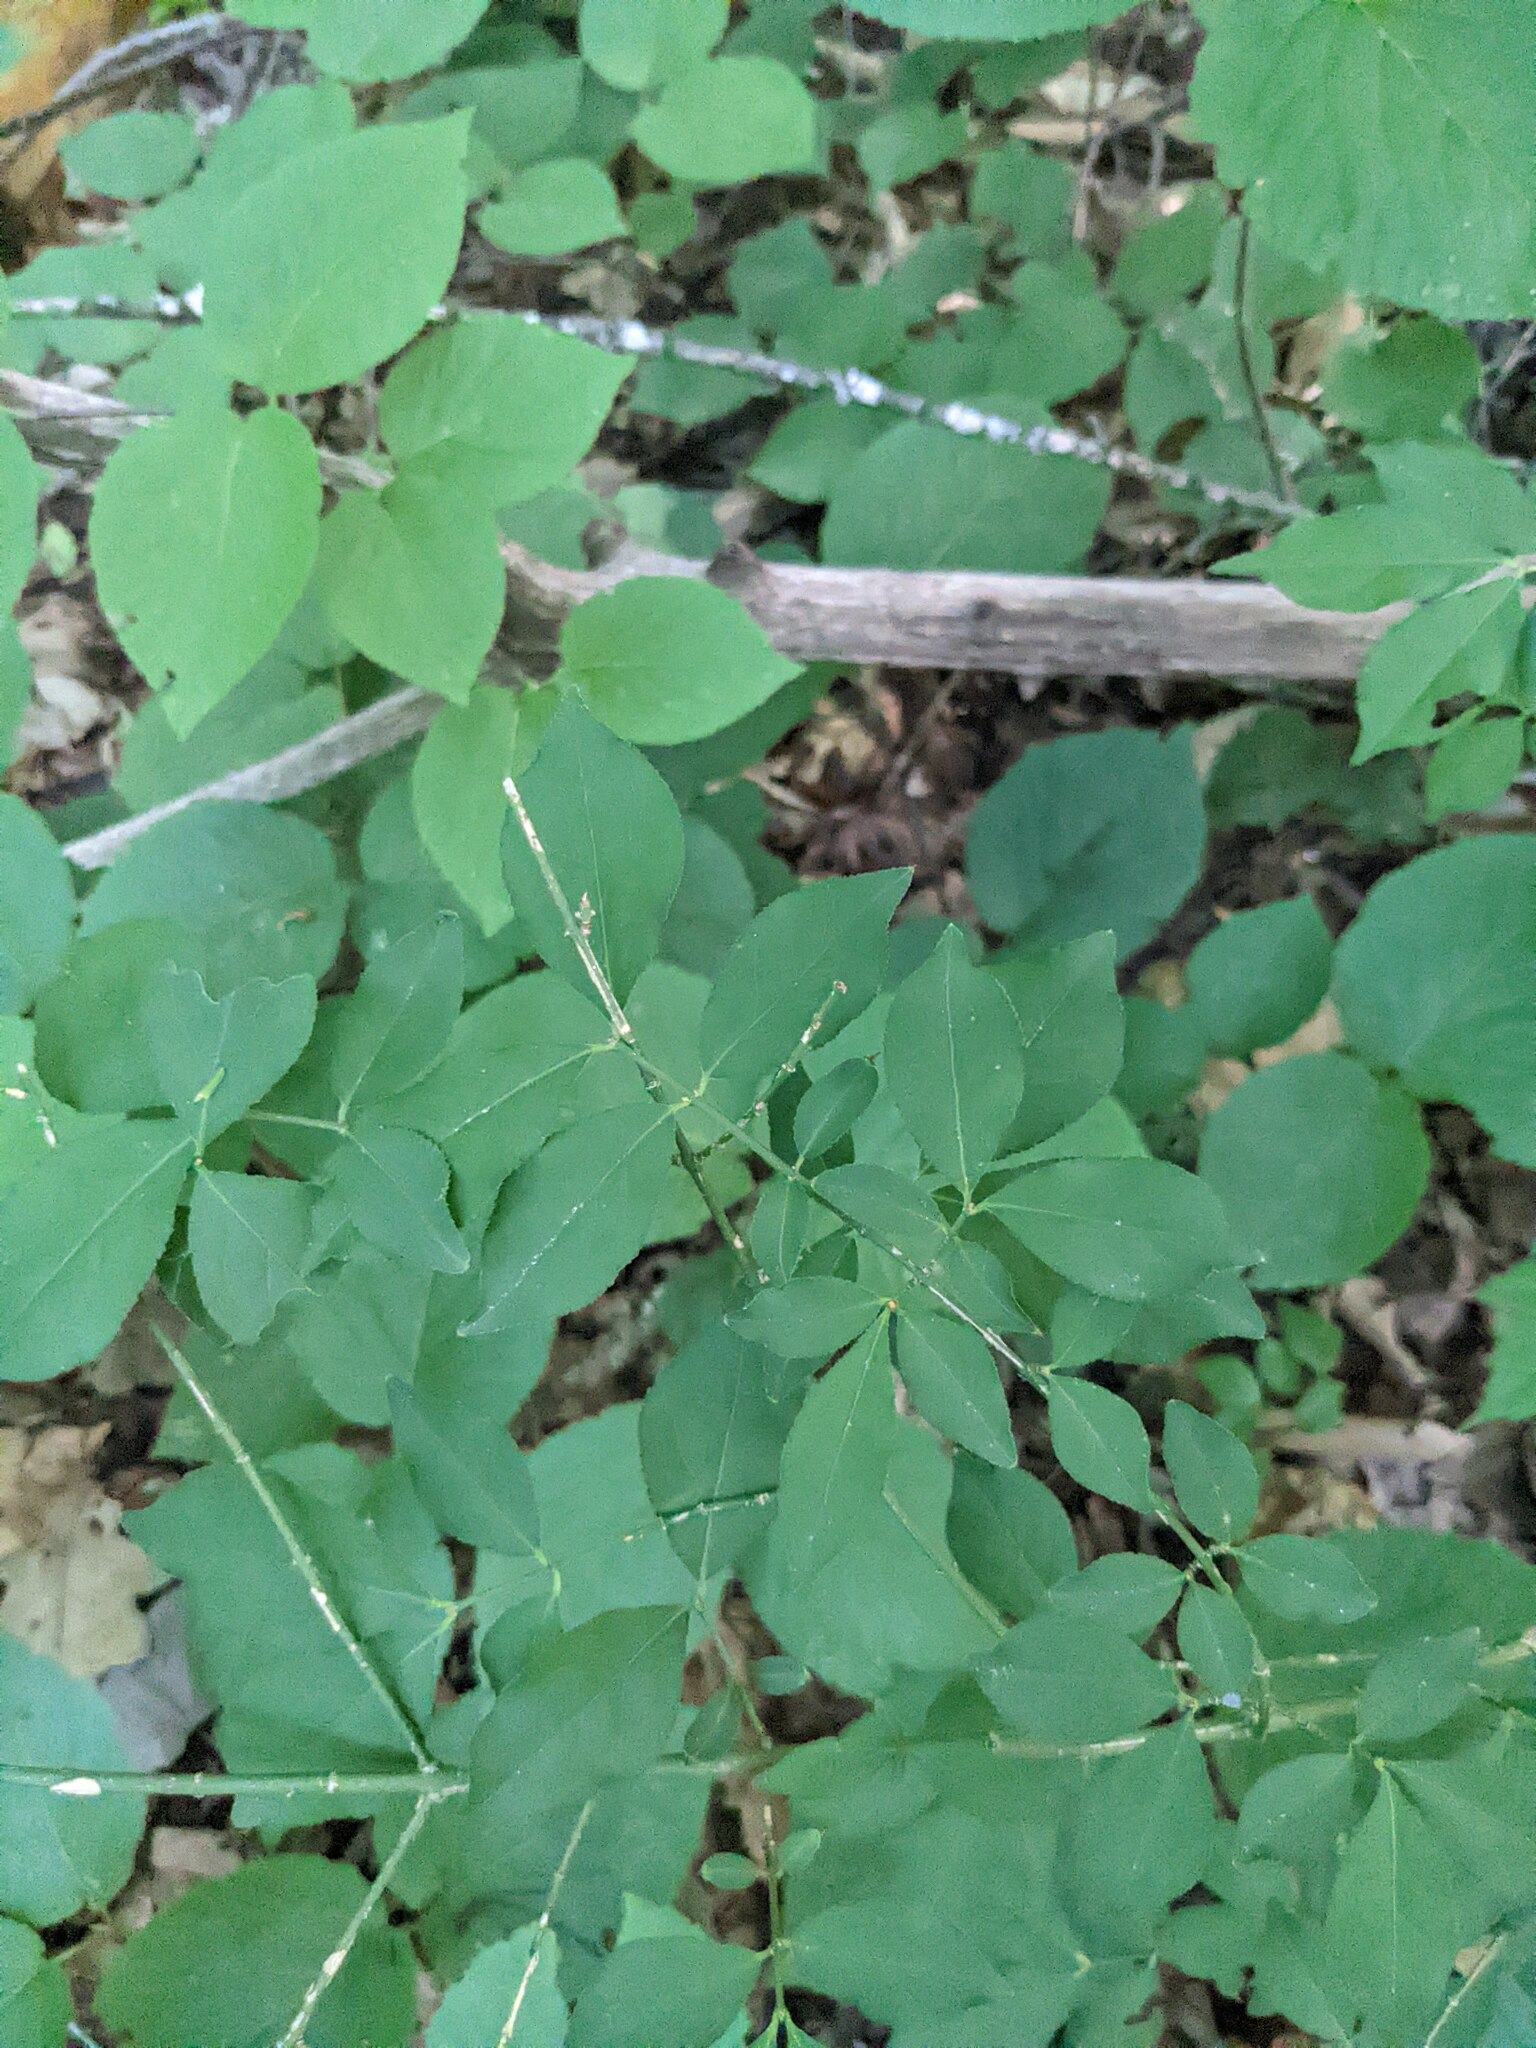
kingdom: Plantae
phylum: Tracheophyta
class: Magnoliopsida
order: Celastrales
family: Celastraceae
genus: Euonymus
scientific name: Euonymus alatus
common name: Winged euonymus
